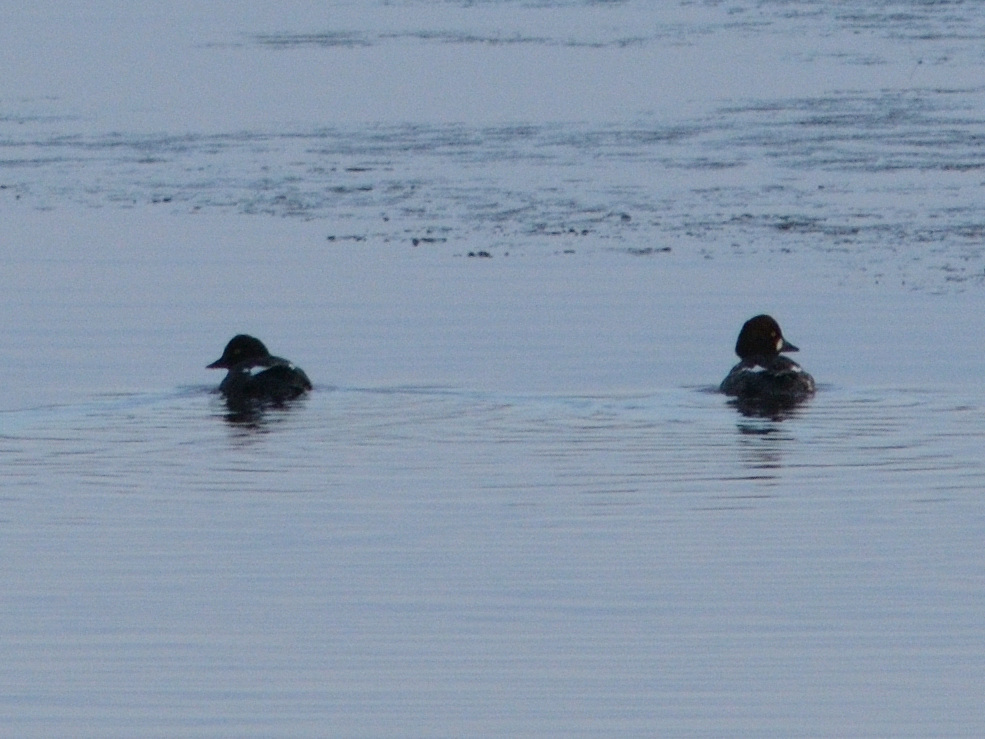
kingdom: Animalia
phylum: Chordata
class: Aves
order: Anseriformes
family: Anatidae
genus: Bucephala
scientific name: Bucephala clangula
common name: Common goldeneye
